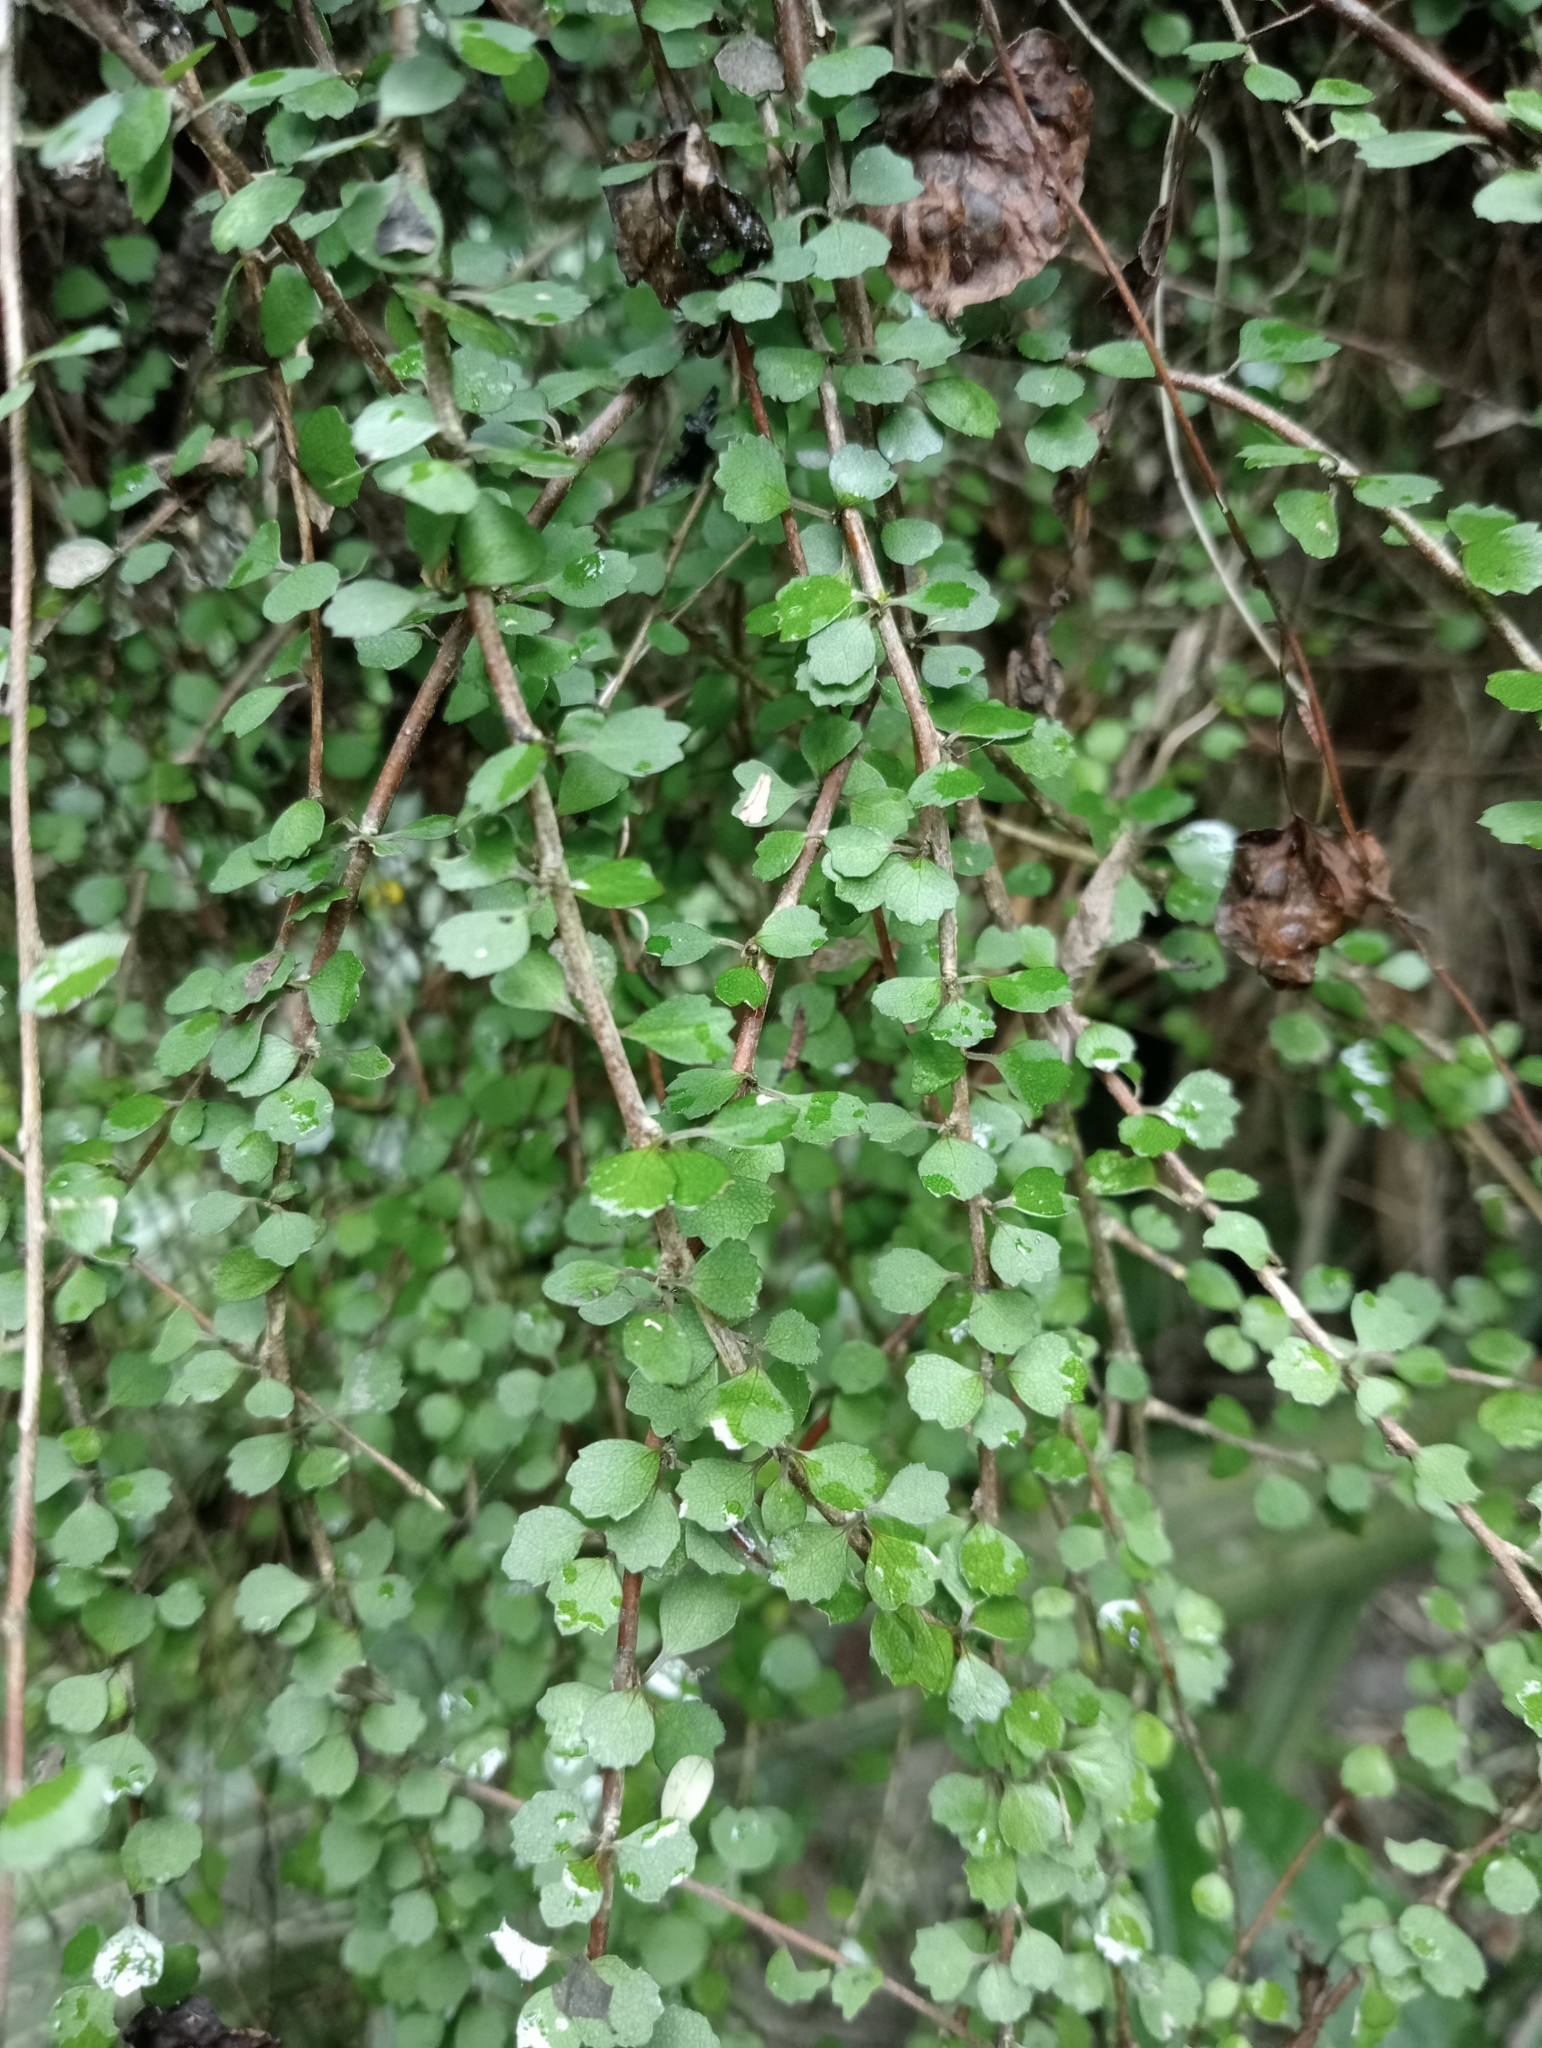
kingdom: Plantae
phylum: Tracheophyta
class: Magnoliopsida
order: Malvales
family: Malvaceae
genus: Hoheria
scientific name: Hoheria angustifolia
